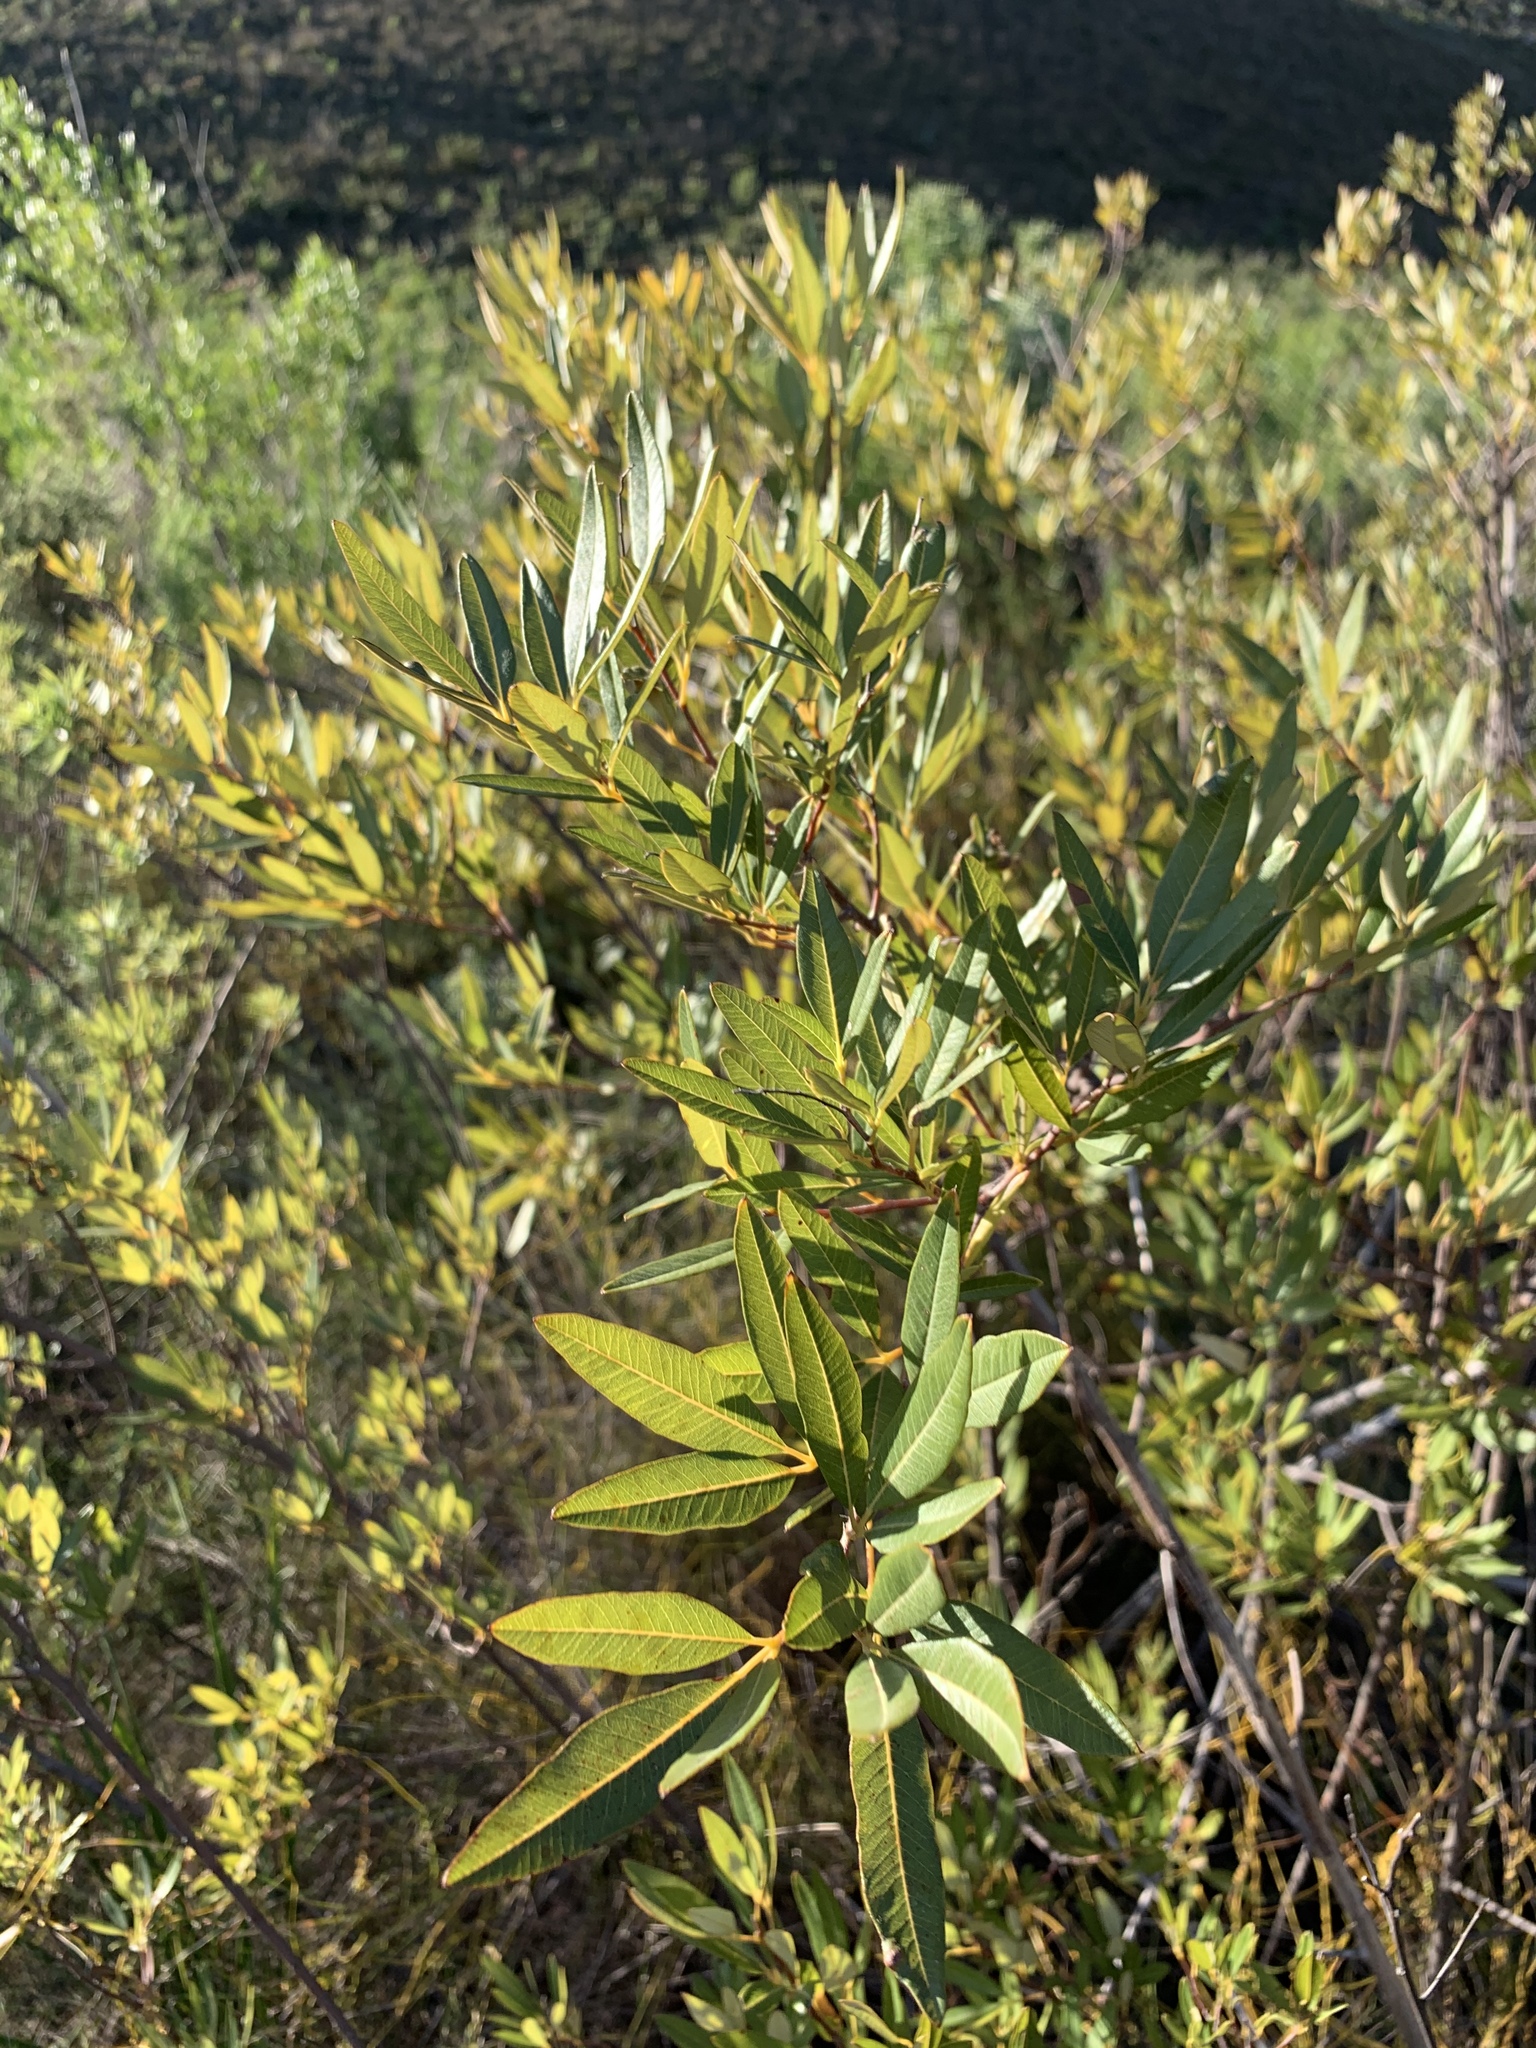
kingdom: Plantae
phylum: Tracheophyta
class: Magnoliopsida
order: Sapindales
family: Anacardiaceae
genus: Searsia
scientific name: Searsia angustifolia
